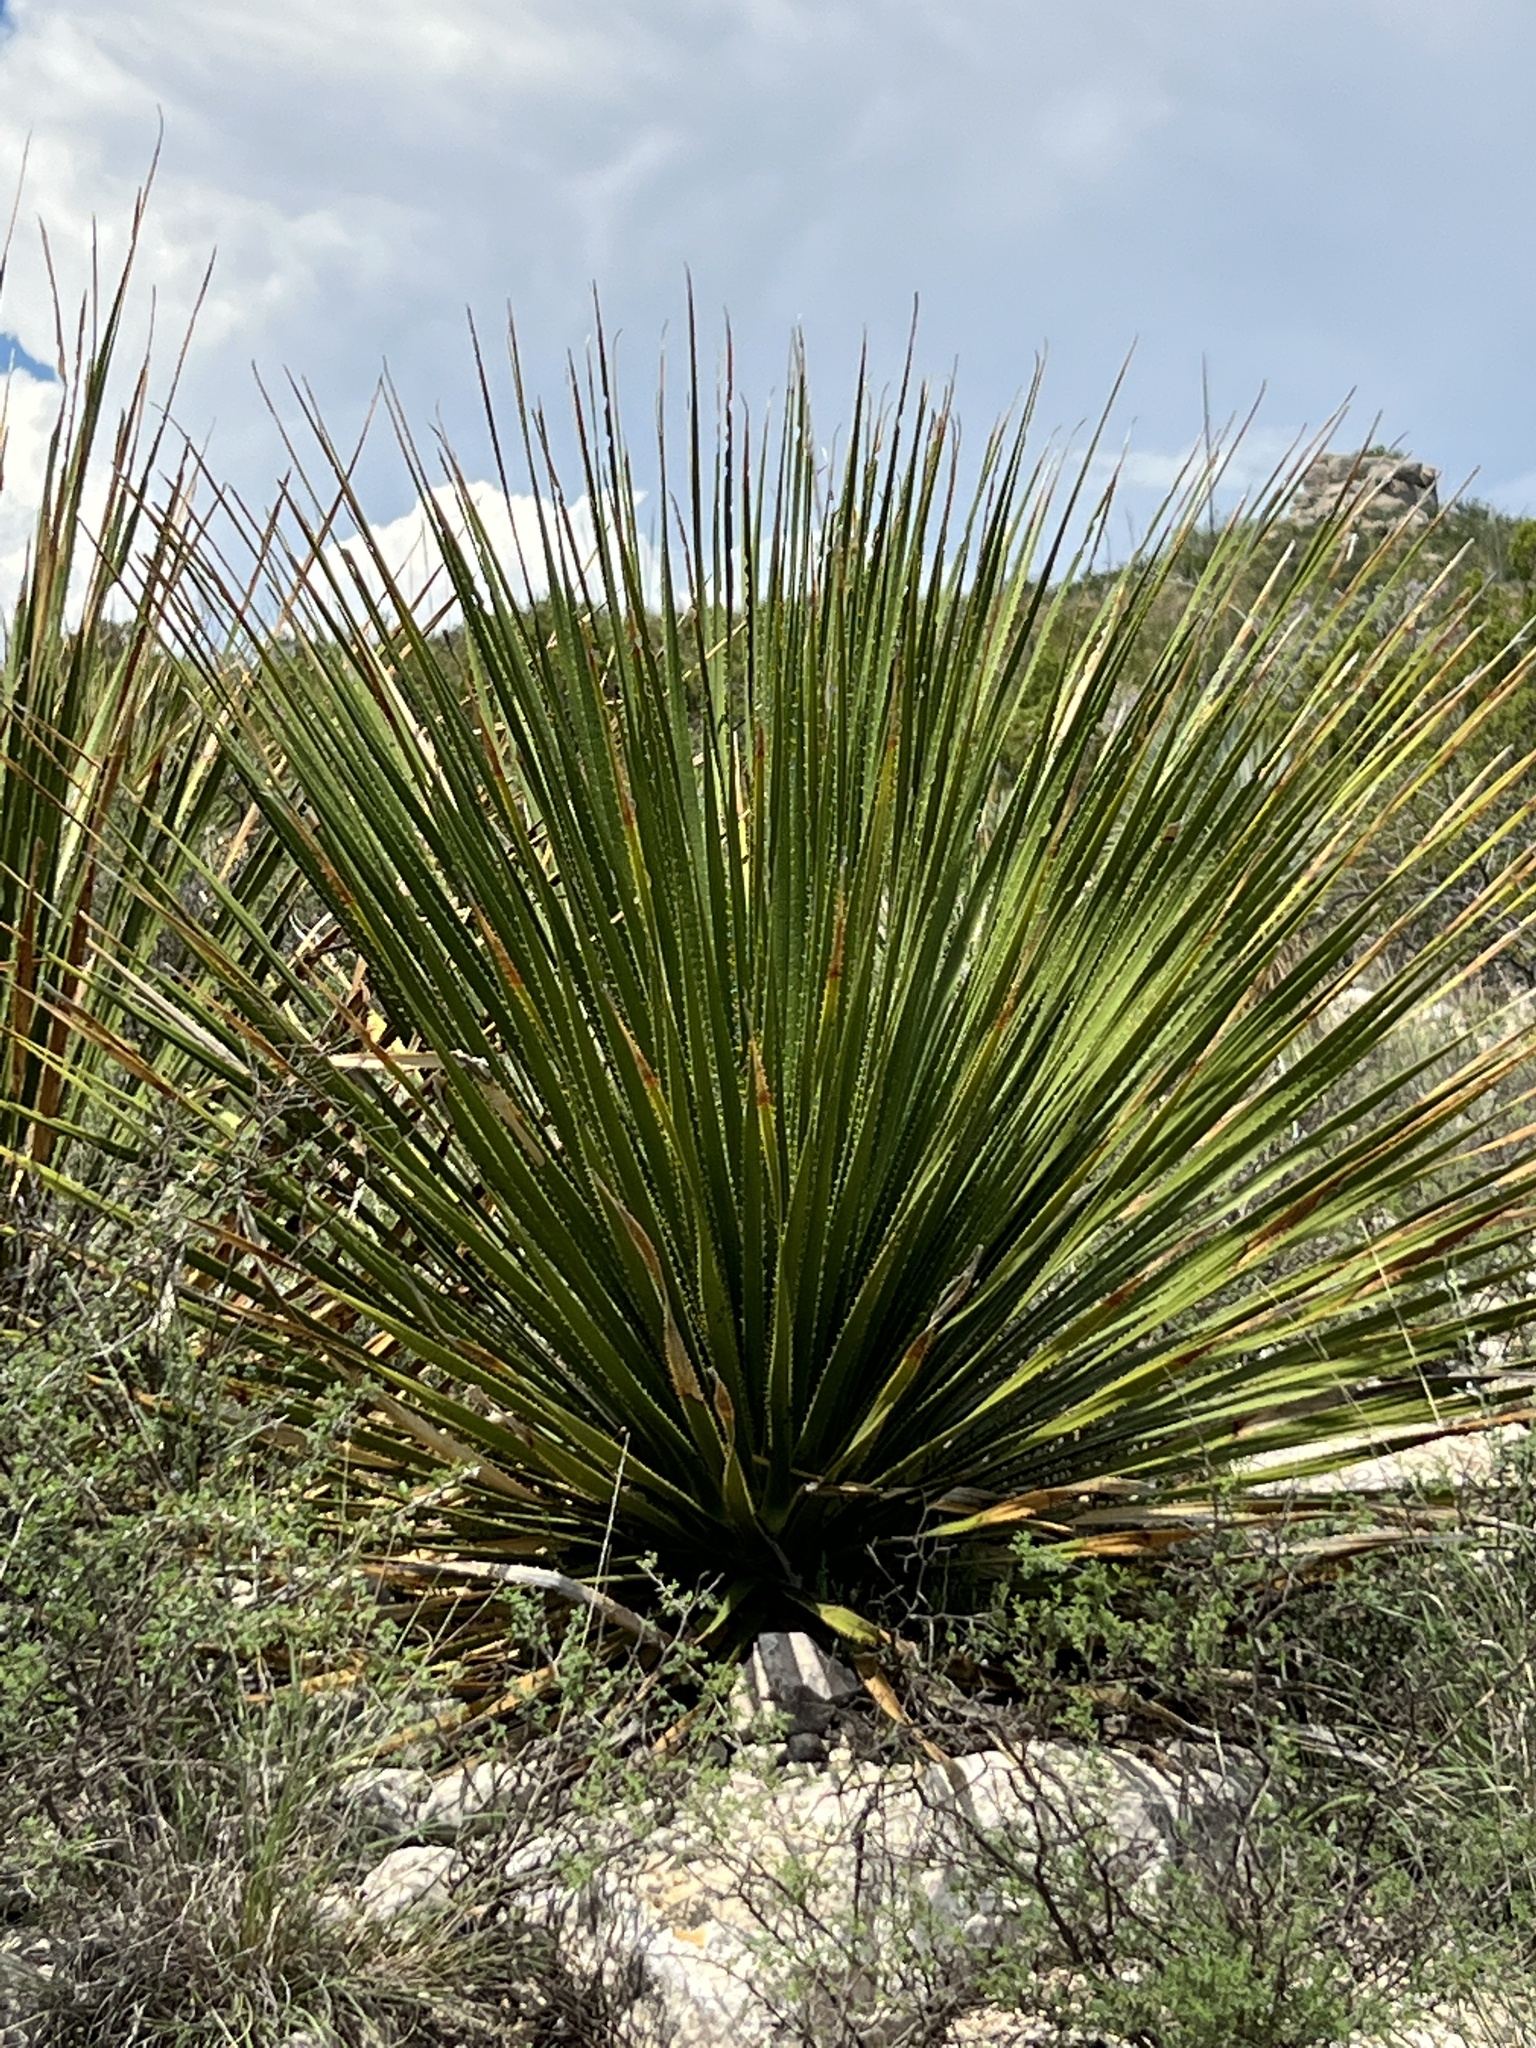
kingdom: Plantae
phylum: Tracheophyta
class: Liliopsida
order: Asparagales
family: Asparagaceae
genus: Dasylirion
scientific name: Dasylirion texanum
